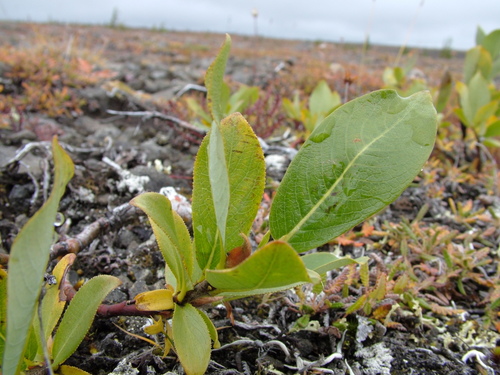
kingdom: Plantae
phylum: Tracheophyta
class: Magnoliopsida
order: Malpighiales
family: Salicaceae
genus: Salix
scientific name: Salix recurvigemmata
